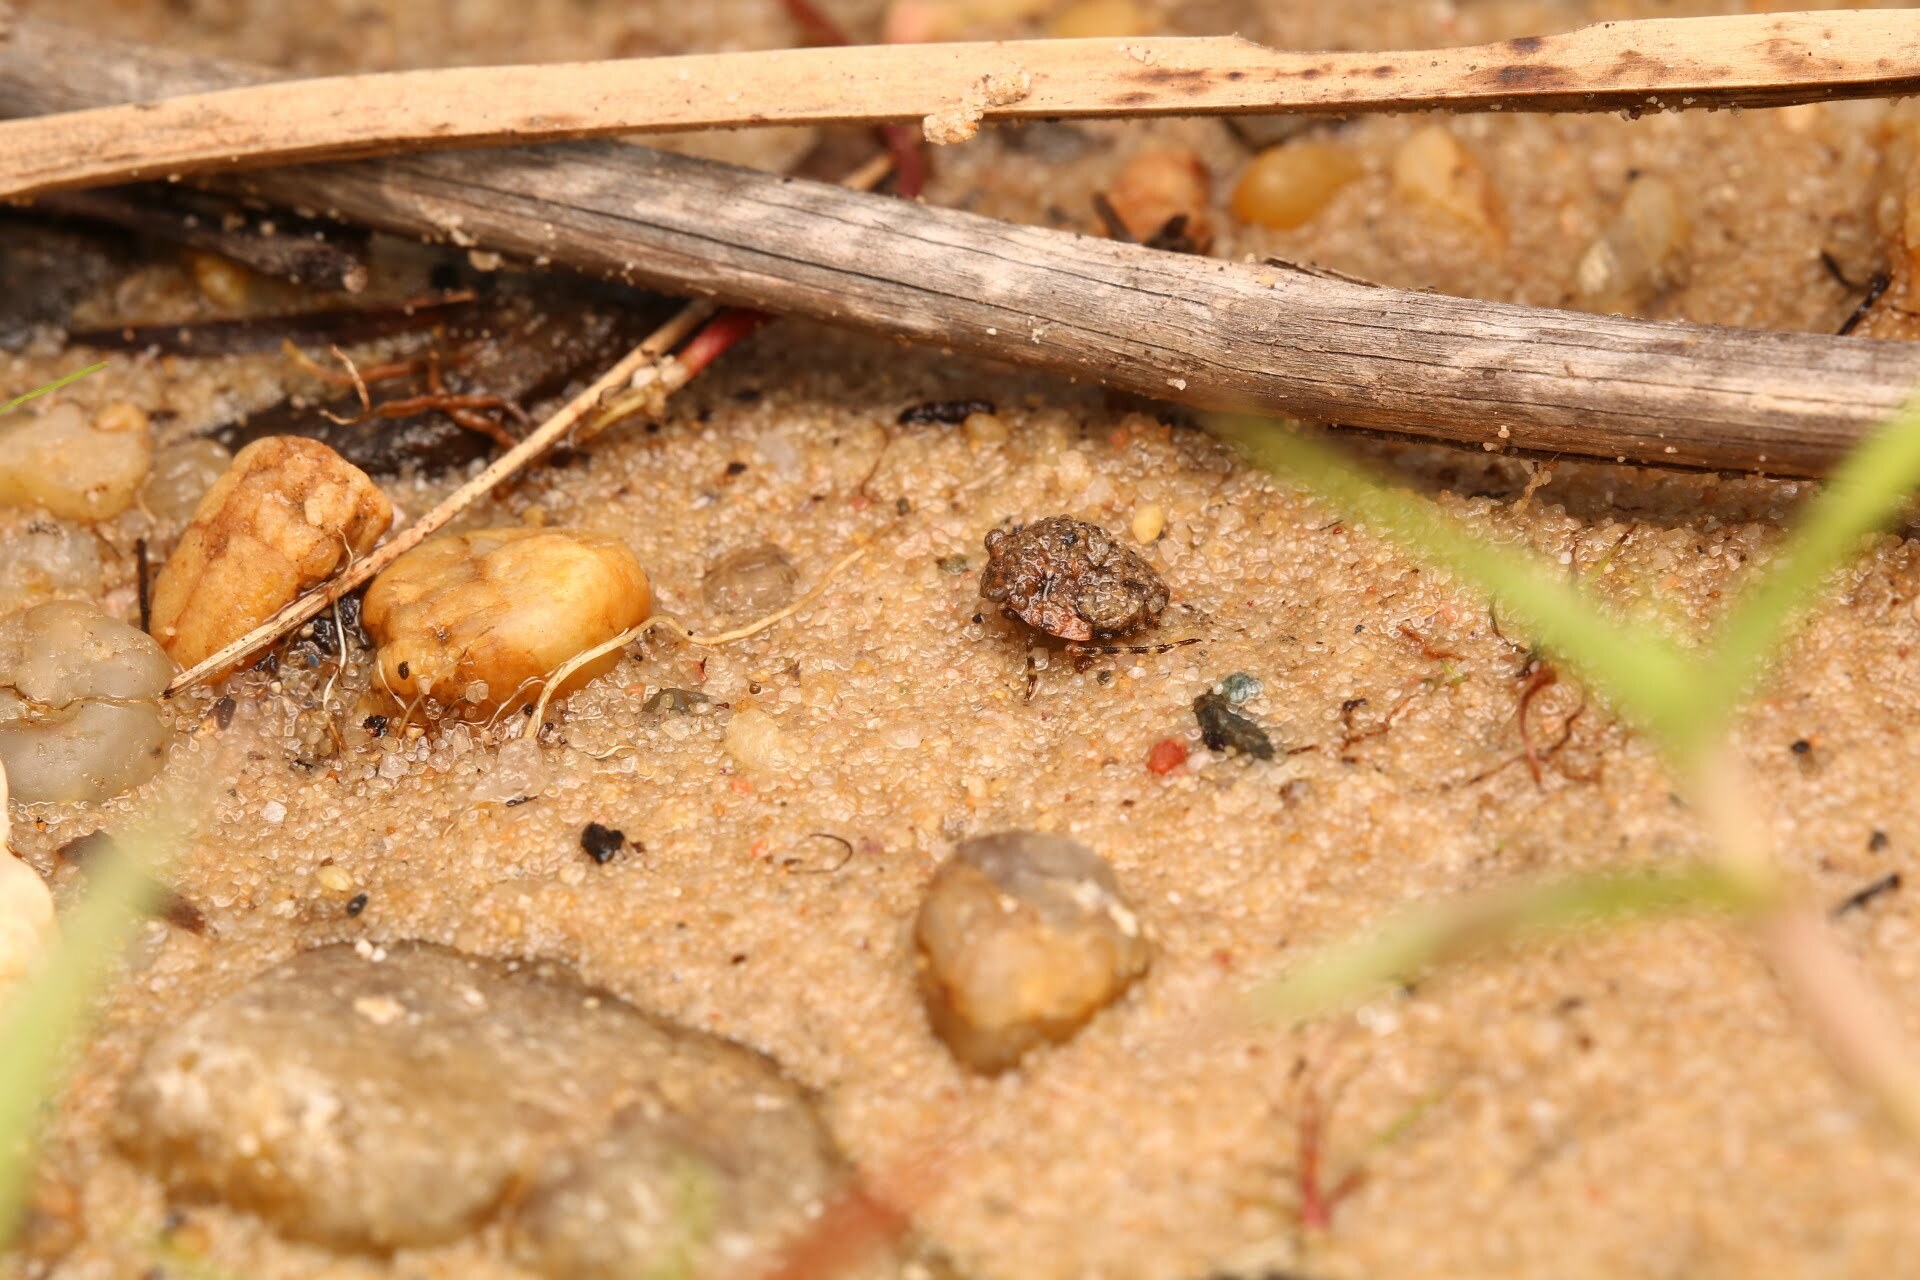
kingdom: Animalia
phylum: Arthropoda
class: Insecta
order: Hemiptera
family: Gelastocoridae
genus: Gelastocoris
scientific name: Gelastocoris oculatus
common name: Toad bug
